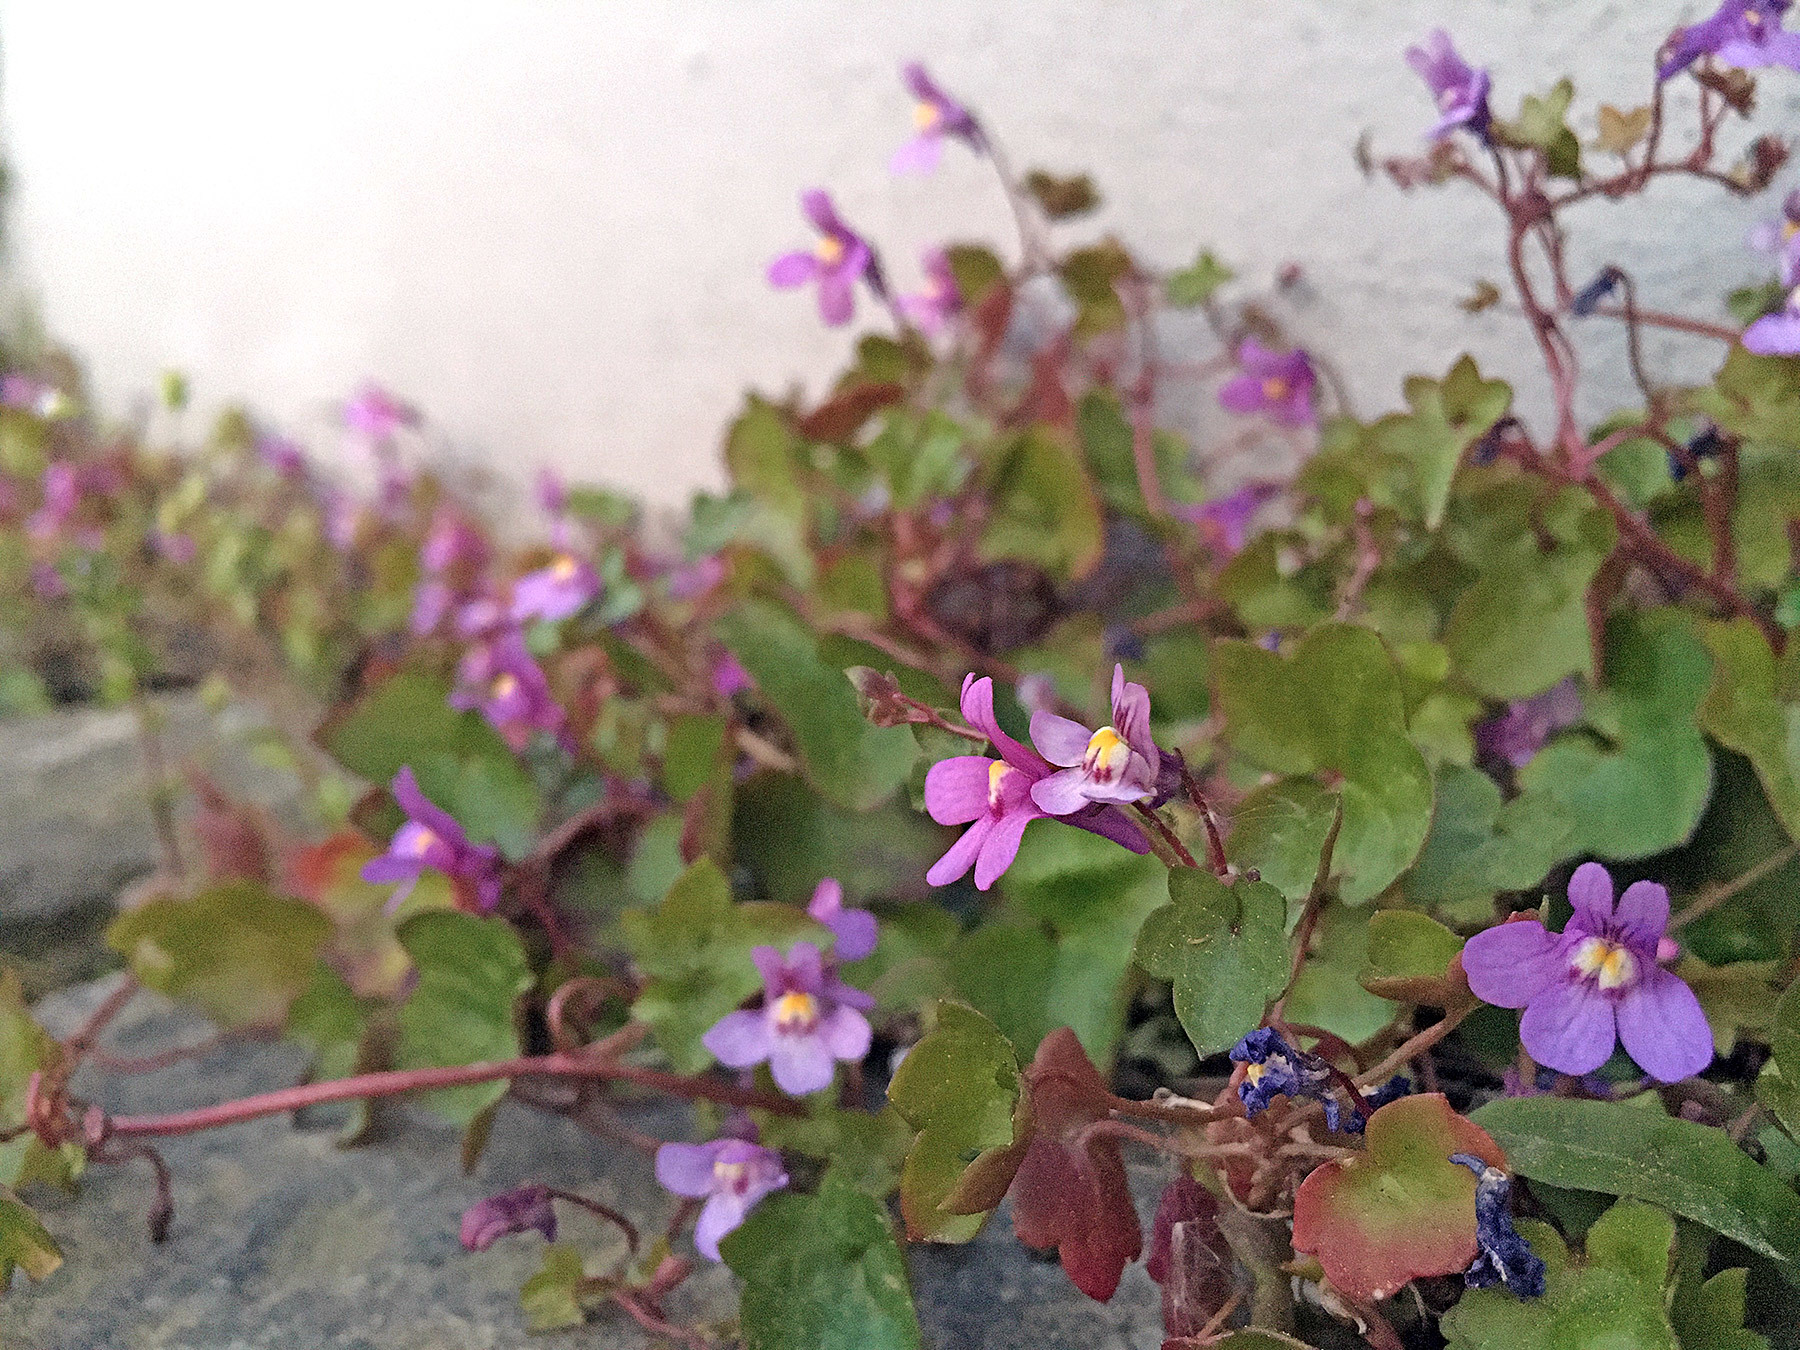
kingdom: Plantae
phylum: Tracheophyta
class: Magnoliopsida
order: Lamiales
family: Plantaginaceae
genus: Cymbalaria
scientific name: Cymbalaria muralis
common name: Ivy-leaved toadflax
